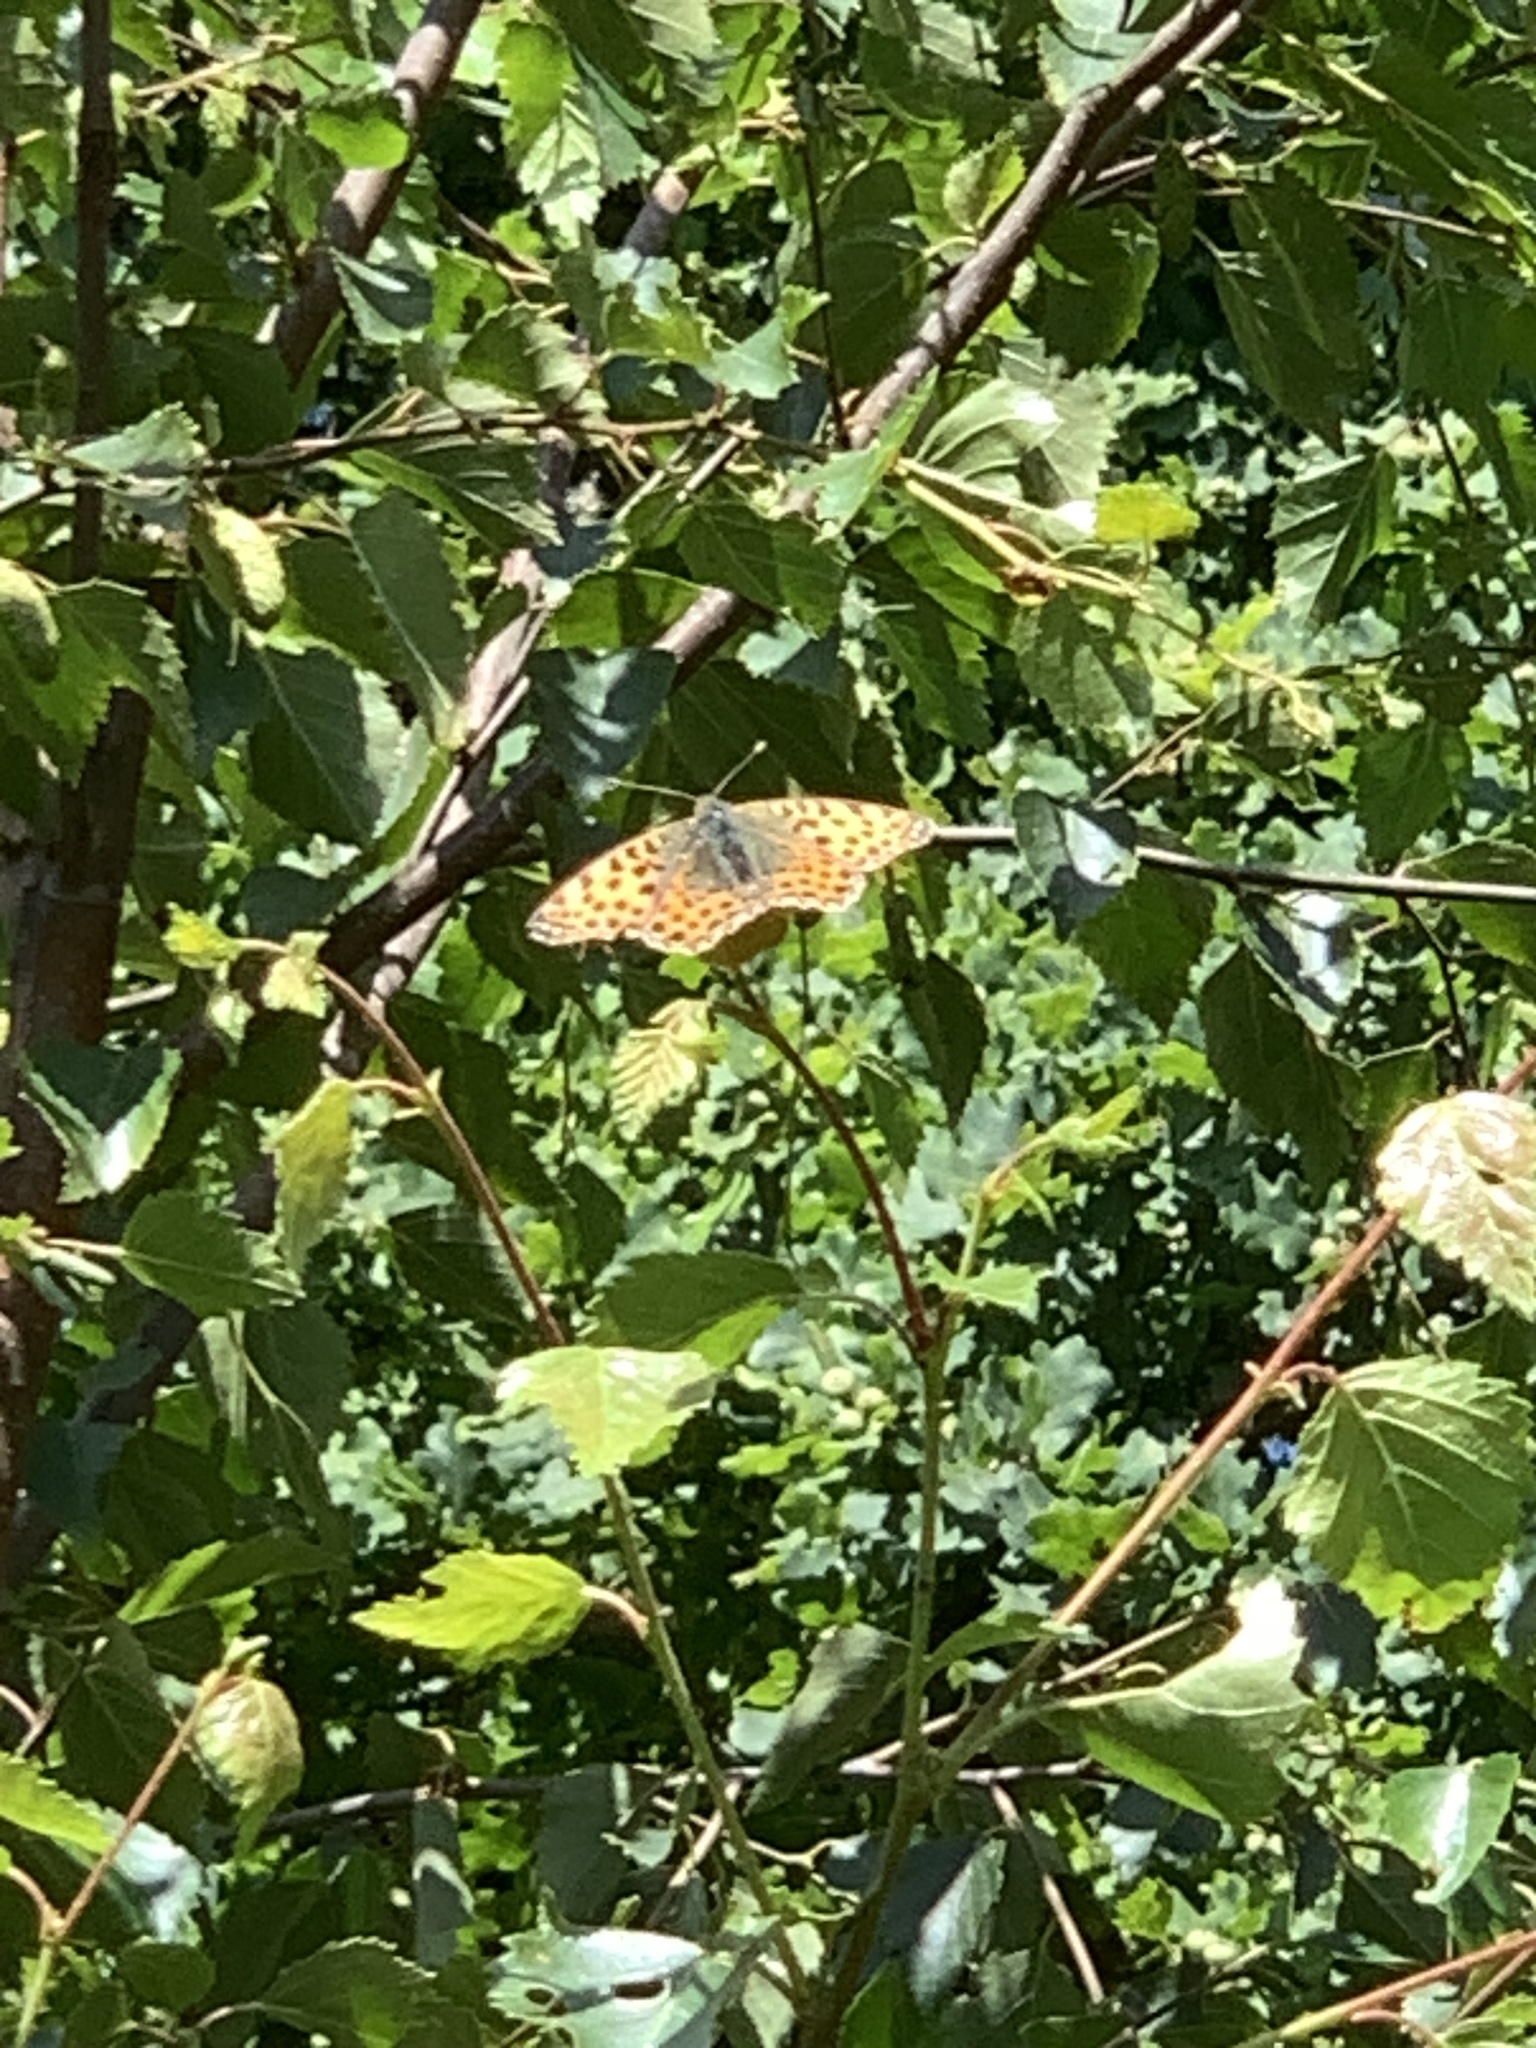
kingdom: Animalia
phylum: Arthropoda
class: Insecta
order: Lepidoptera
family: Nymphalidae
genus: Issoria
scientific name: Issoria lathonia
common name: Queen of spain fritillary
